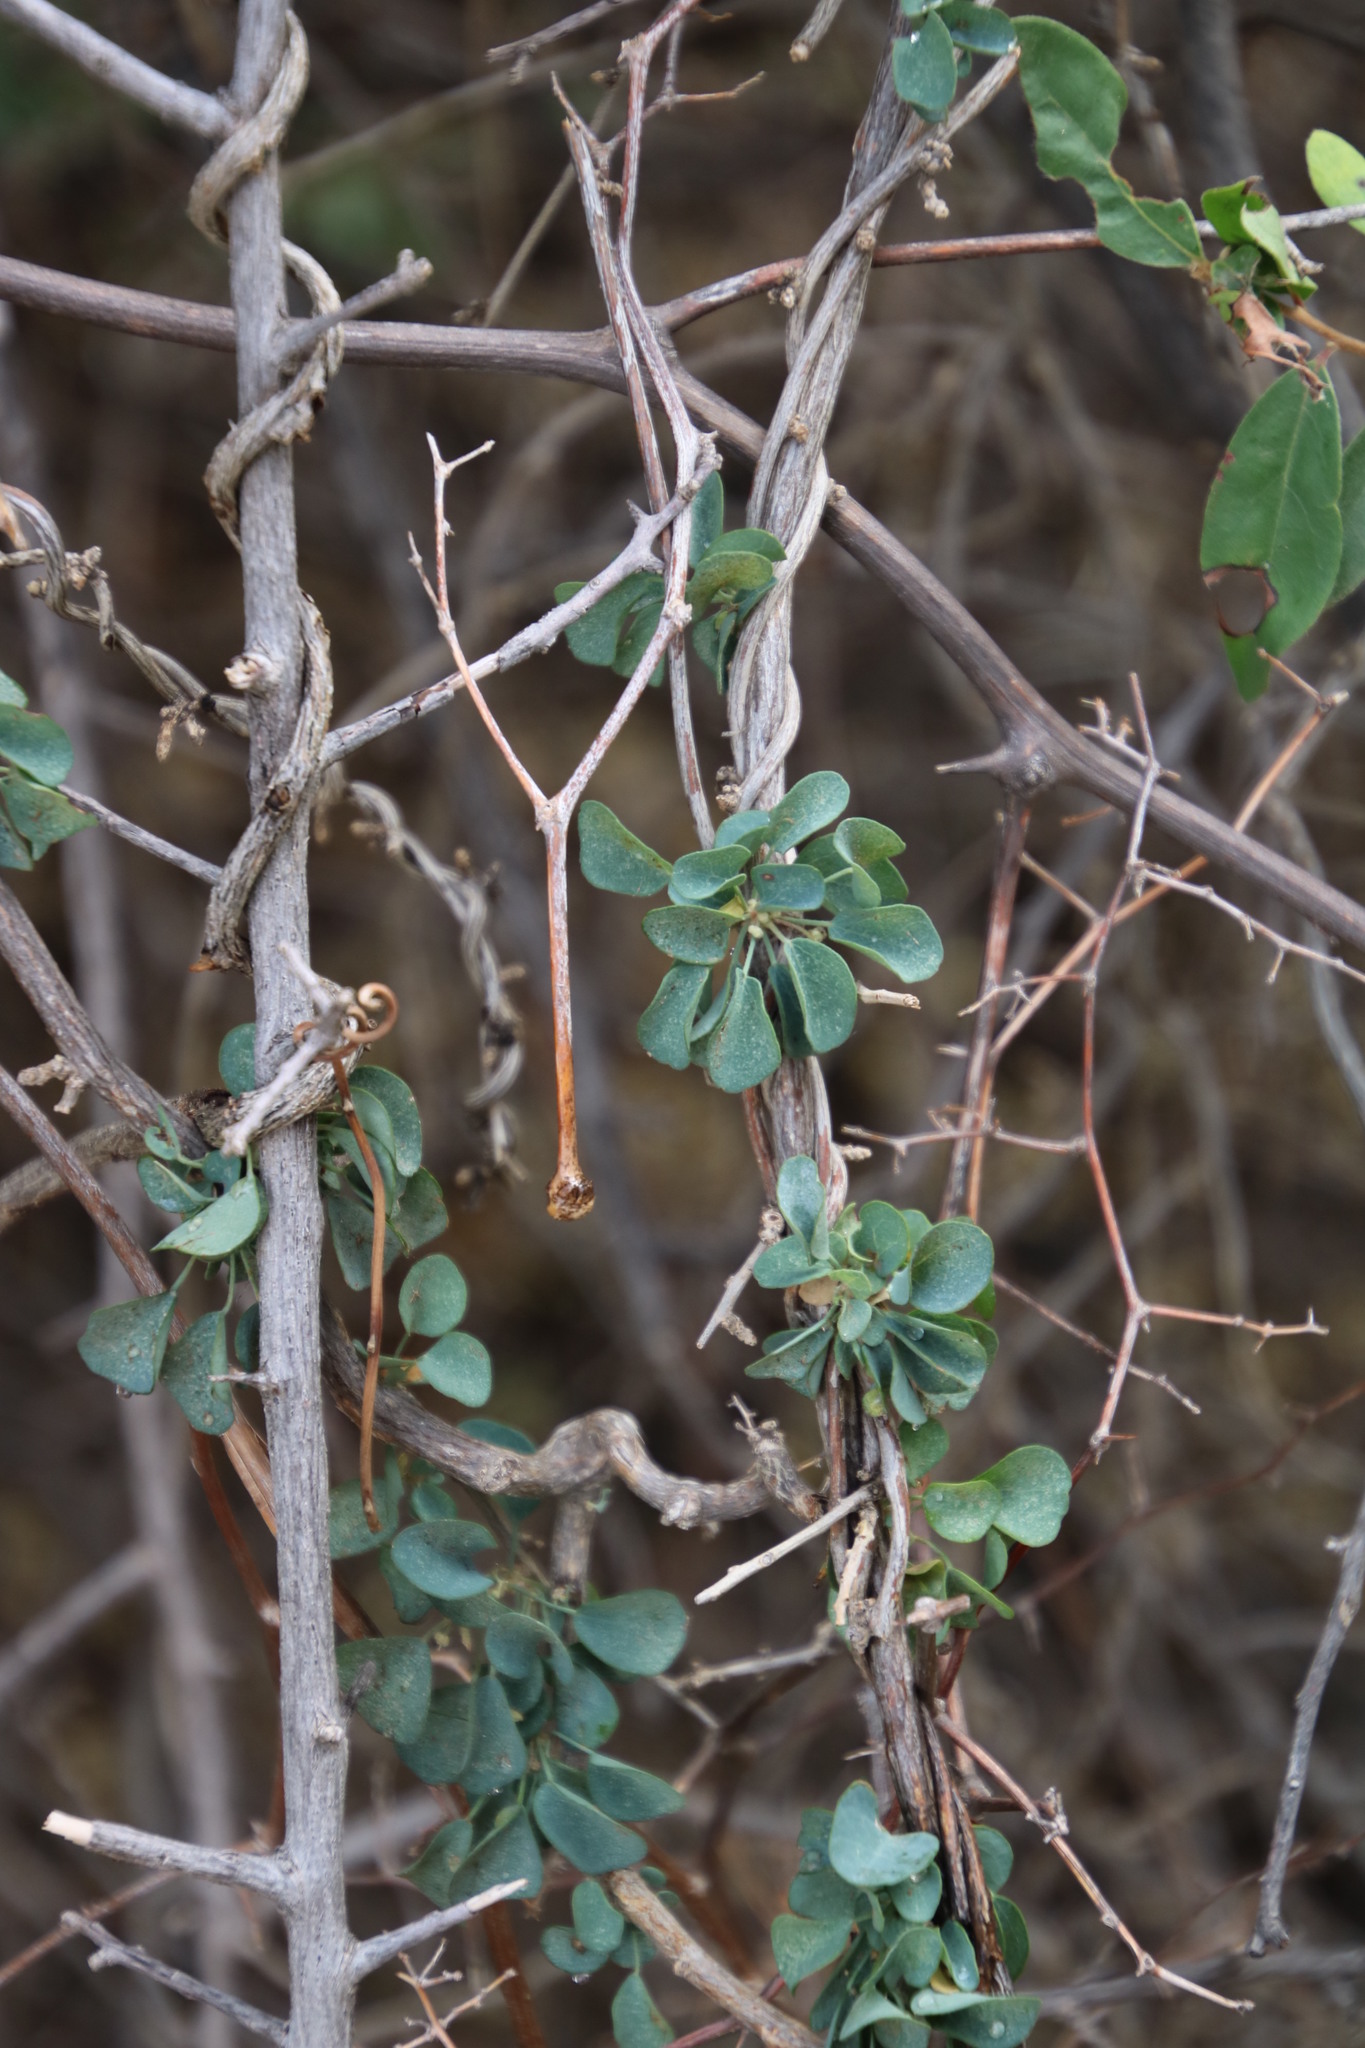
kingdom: Plantae
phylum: Tracheophyta
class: Magnoliopsida
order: Ranunculales
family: Menispermaceae
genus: Cissampelos
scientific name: Cissampelos capensis
